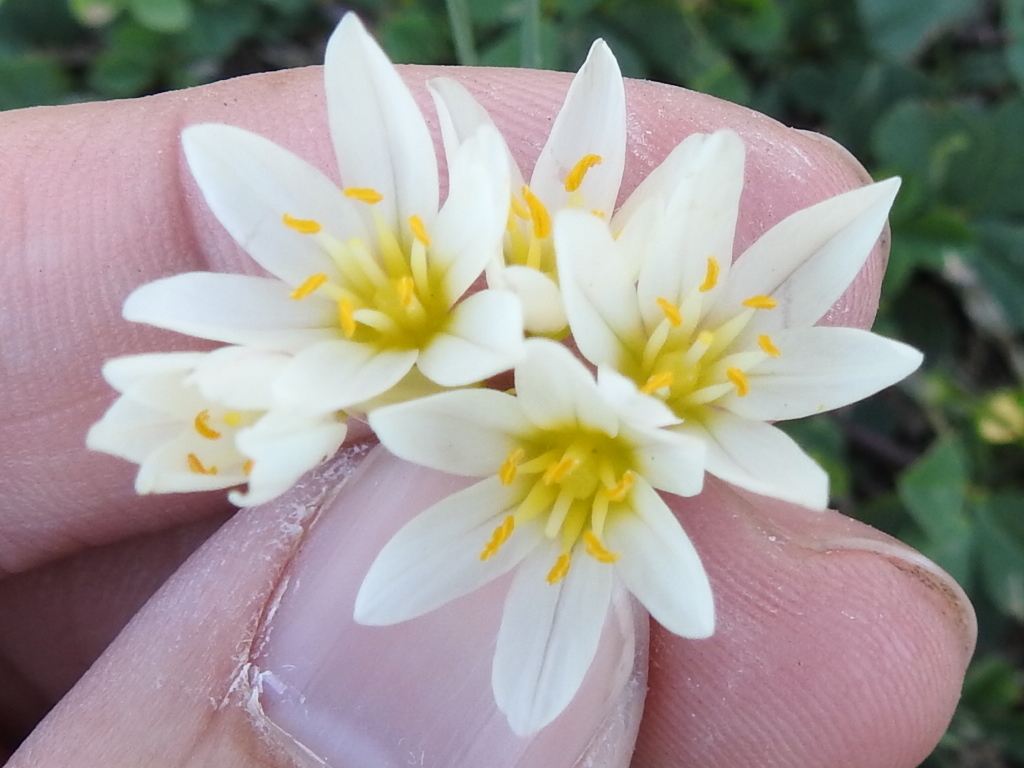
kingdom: Plantae
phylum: Tracheophyta
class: Liliopsida
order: Asparagales
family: Amaryllidaceae
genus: Nothoscordum
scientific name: Nothoscordum bivalve
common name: Crow-poison
